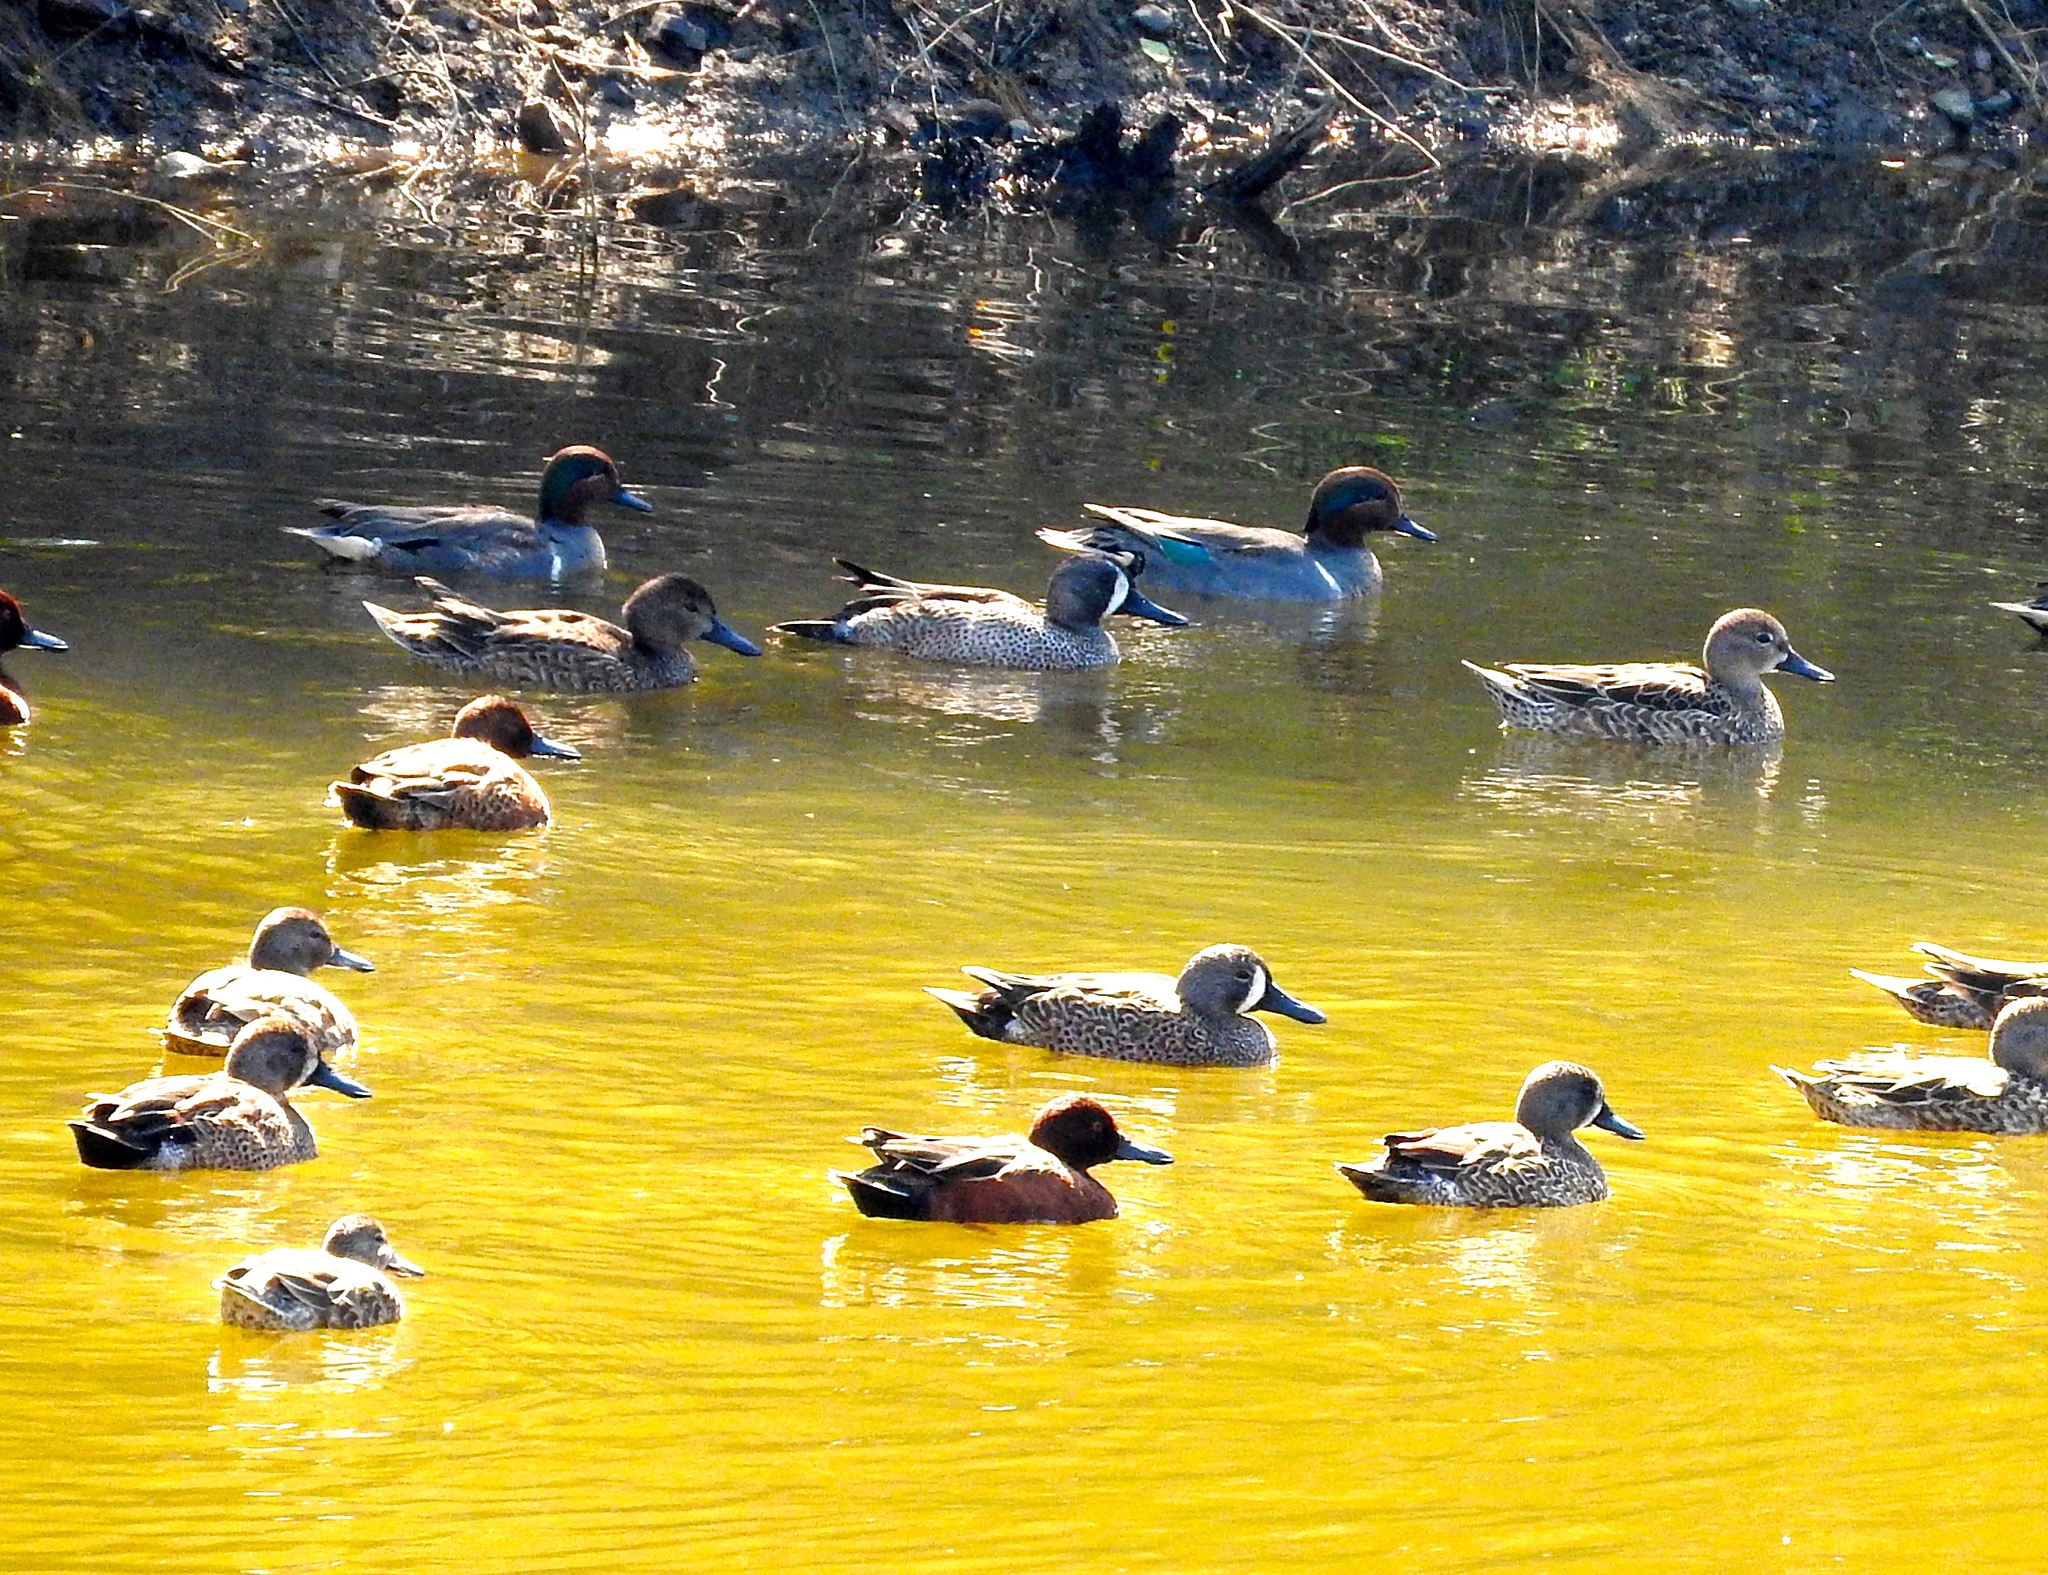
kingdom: Animalia
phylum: Chordata
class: Aves
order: Anseriformes
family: Anatidae
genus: Anas
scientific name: Anas carolinensis
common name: Green-winged teal
